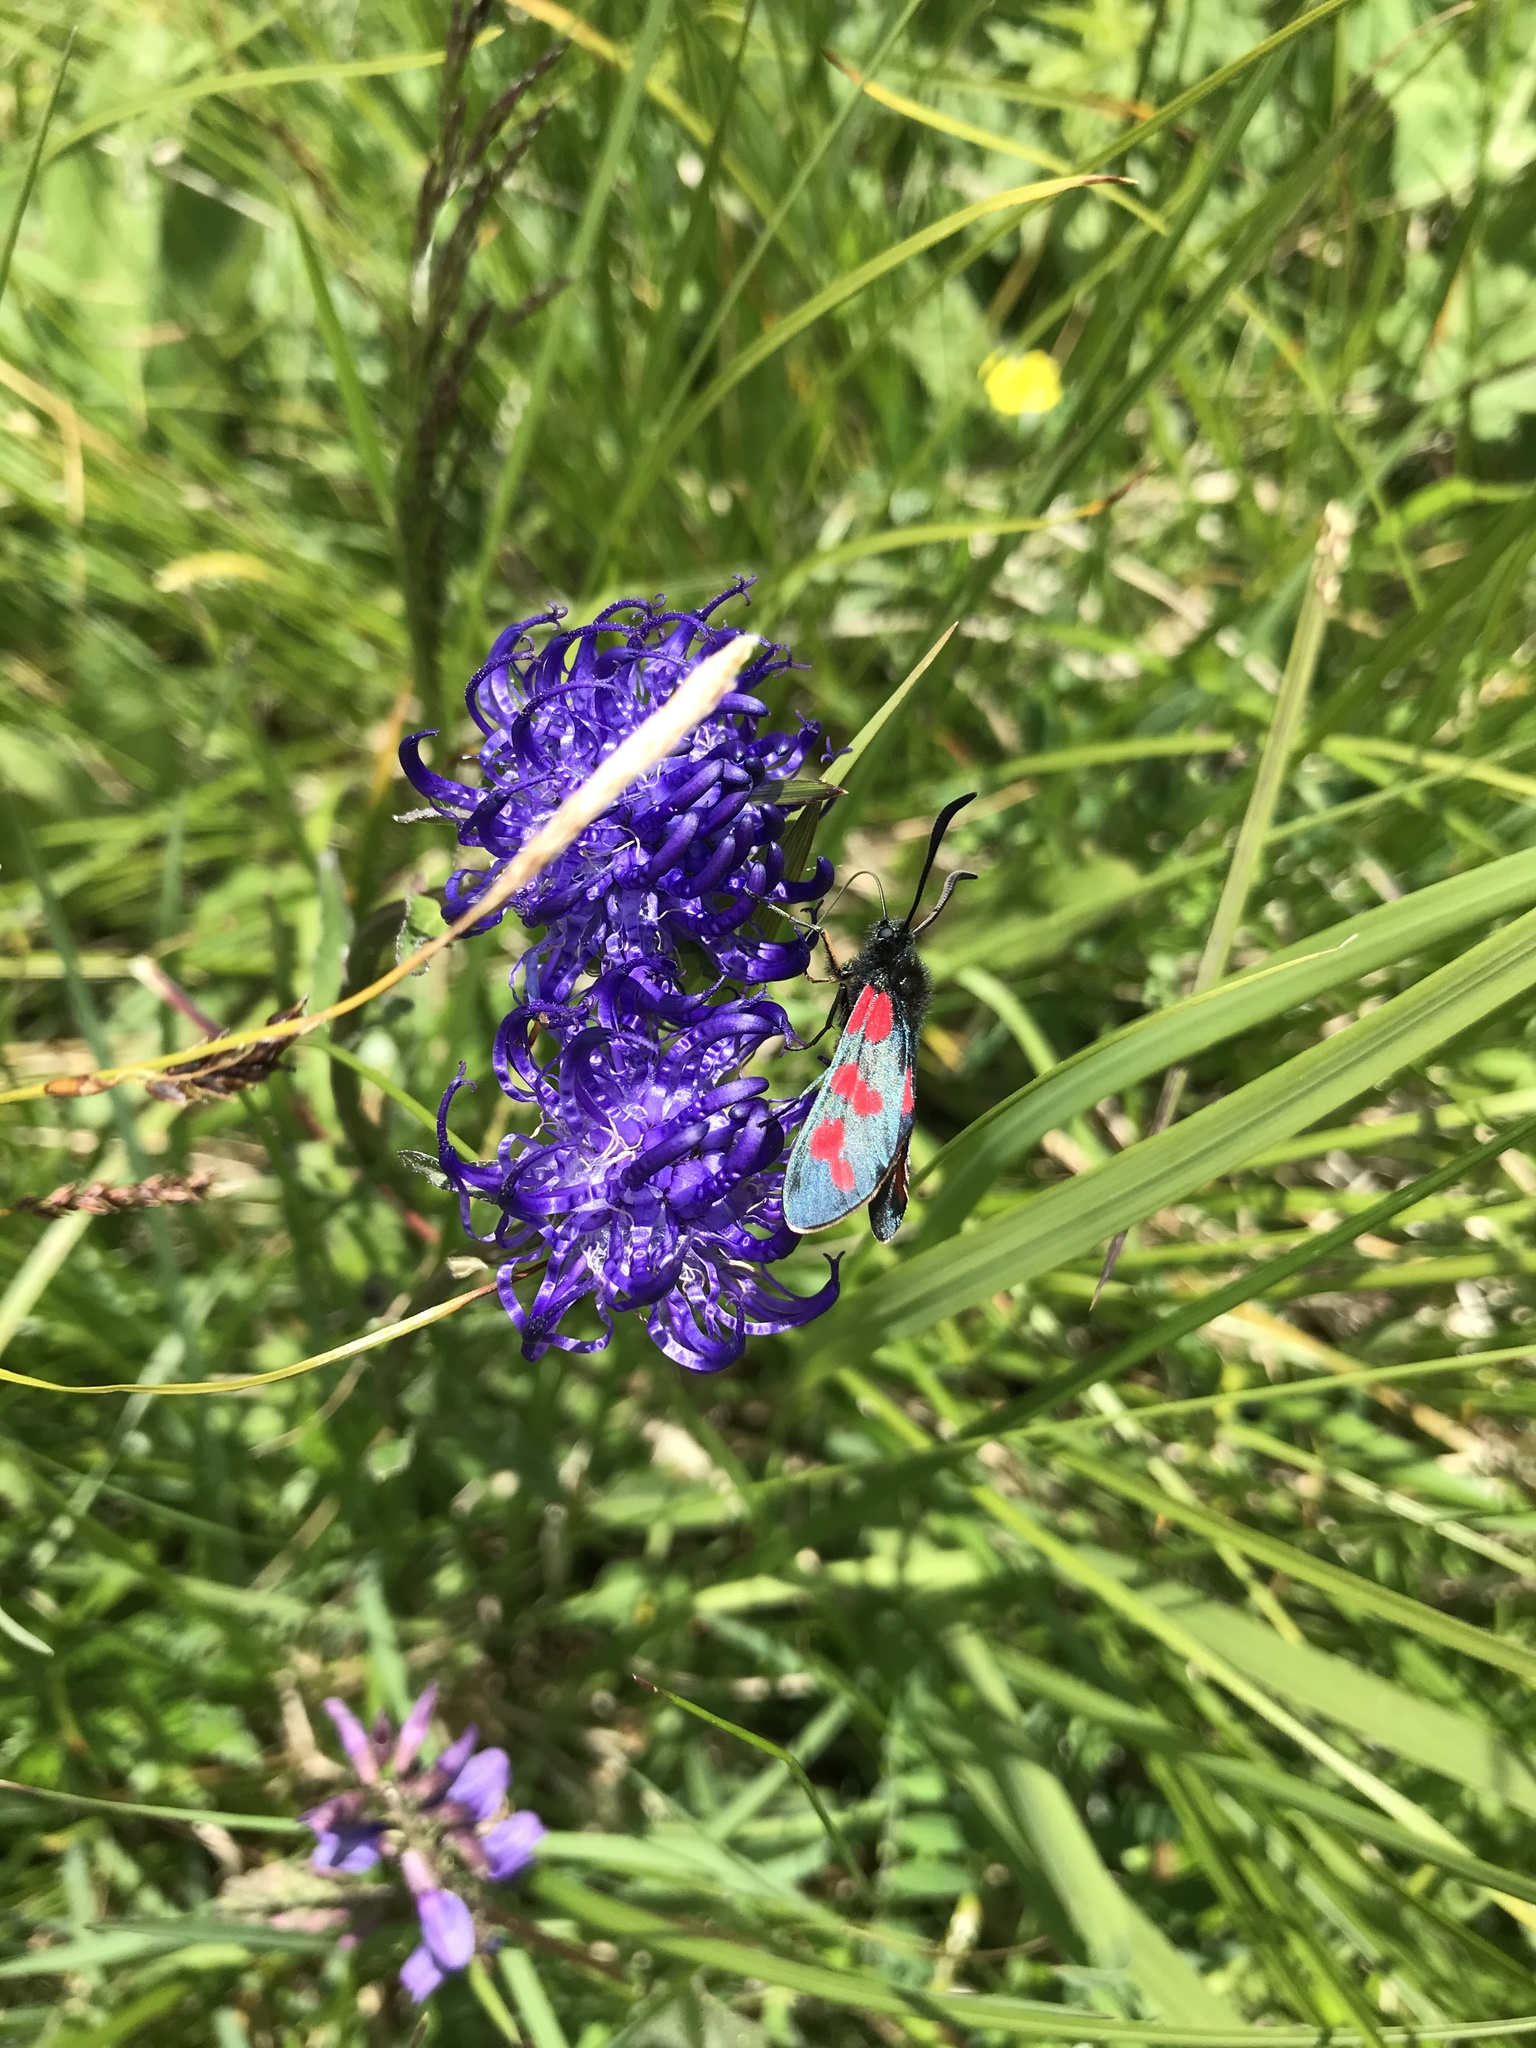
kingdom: Animalia
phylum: Arthropoda
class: Insecta
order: Lepidoptera
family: Zygaenidae
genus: Zygaena
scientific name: Zygaena filipendulae
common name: Six-spot burnet
